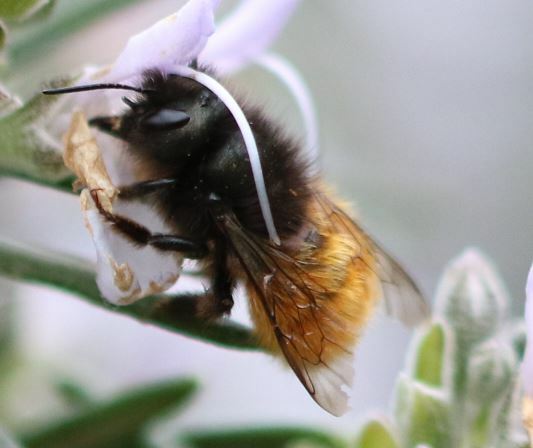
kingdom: Animalia
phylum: Arthropoda
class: Insecta
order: Hymenoptera
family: Megachilidae
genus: Osmia
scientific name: Osmia cornuta
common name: Mason bee
